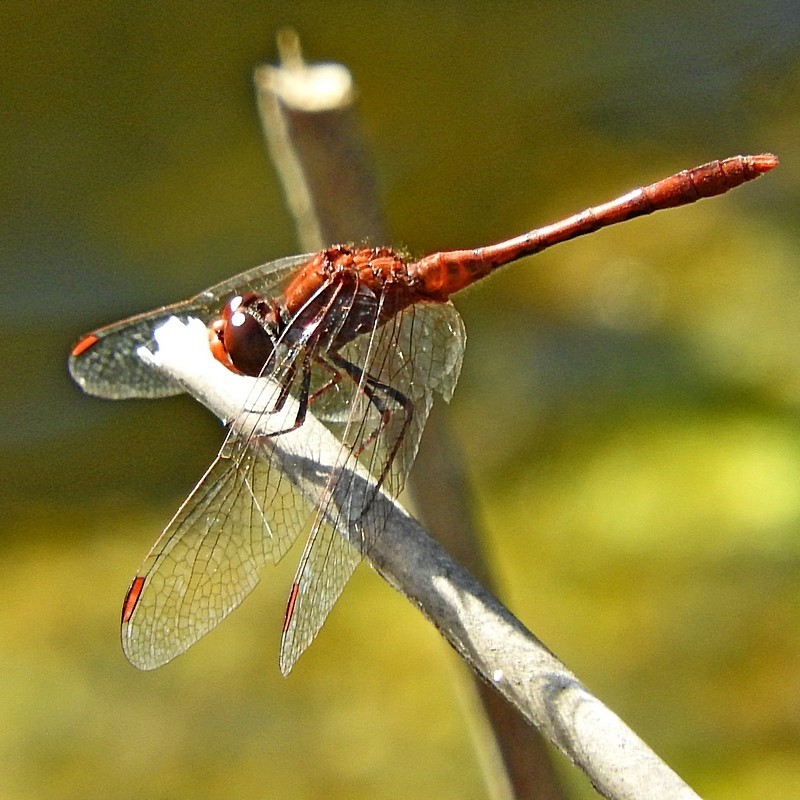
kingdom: Animalia
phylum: Arthropoda
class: Insecta
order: Odonata
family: Libellulidae
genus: Diplacodes
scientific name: Diplacodes bipunctata
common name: Red percher dragonfly
